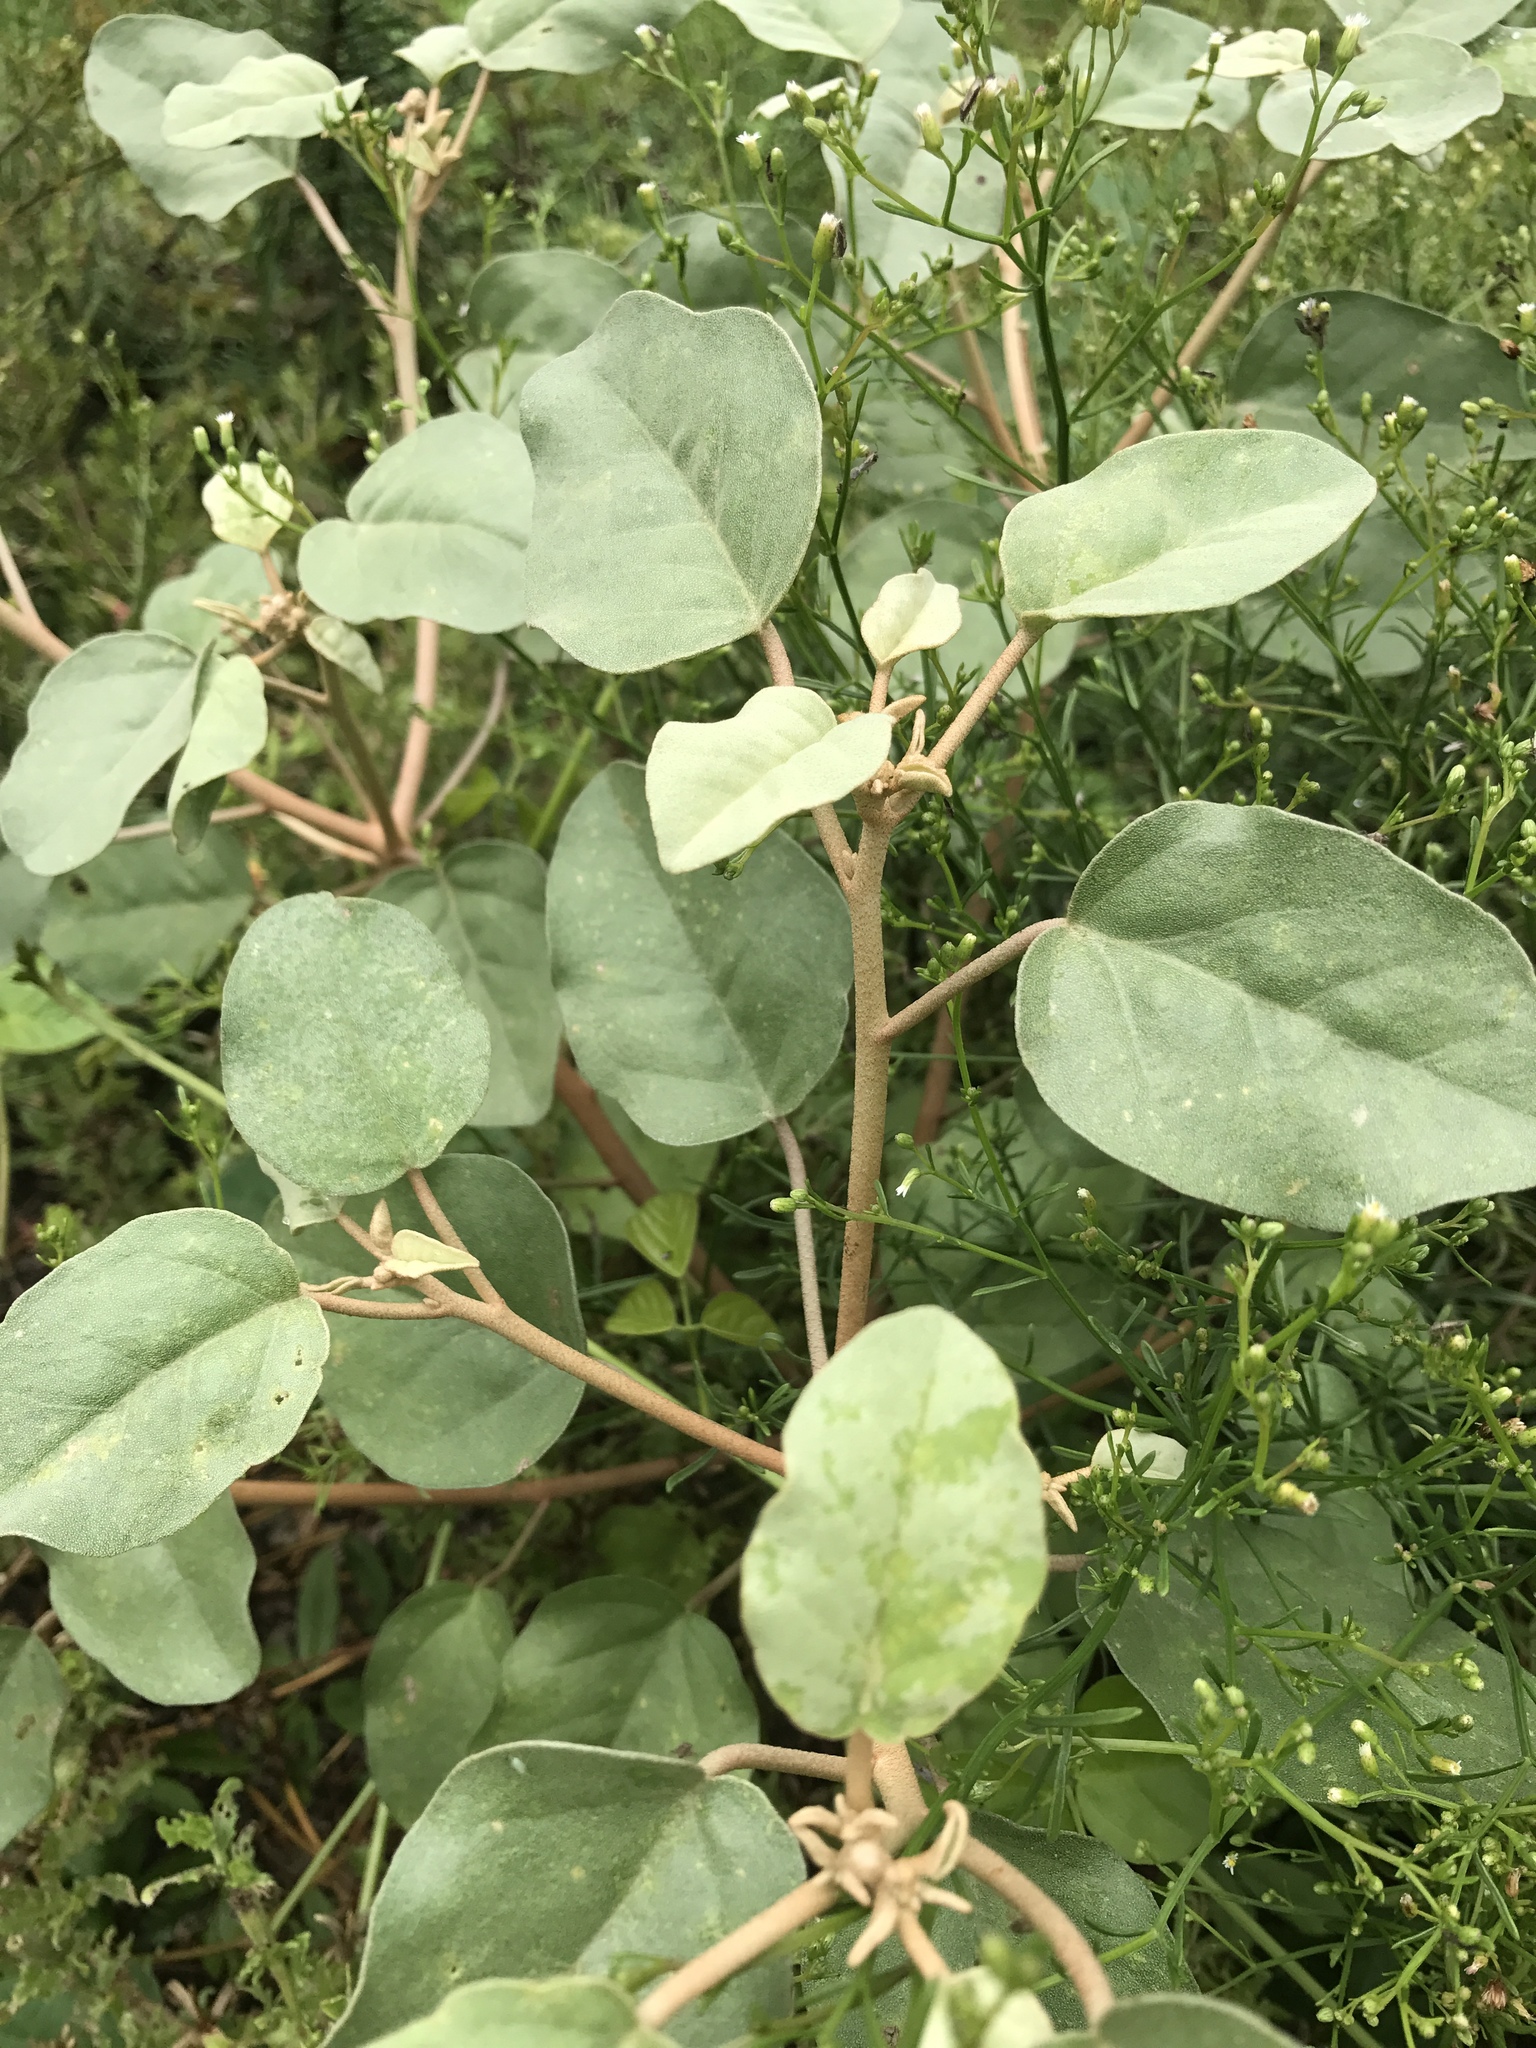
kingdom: Plantae
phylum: Tracheophyta
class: Magnoliopsida
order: Malpighiales
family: Euphorbiaceae
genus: Croton
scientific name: Croton punctatus
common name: Beach-tea
